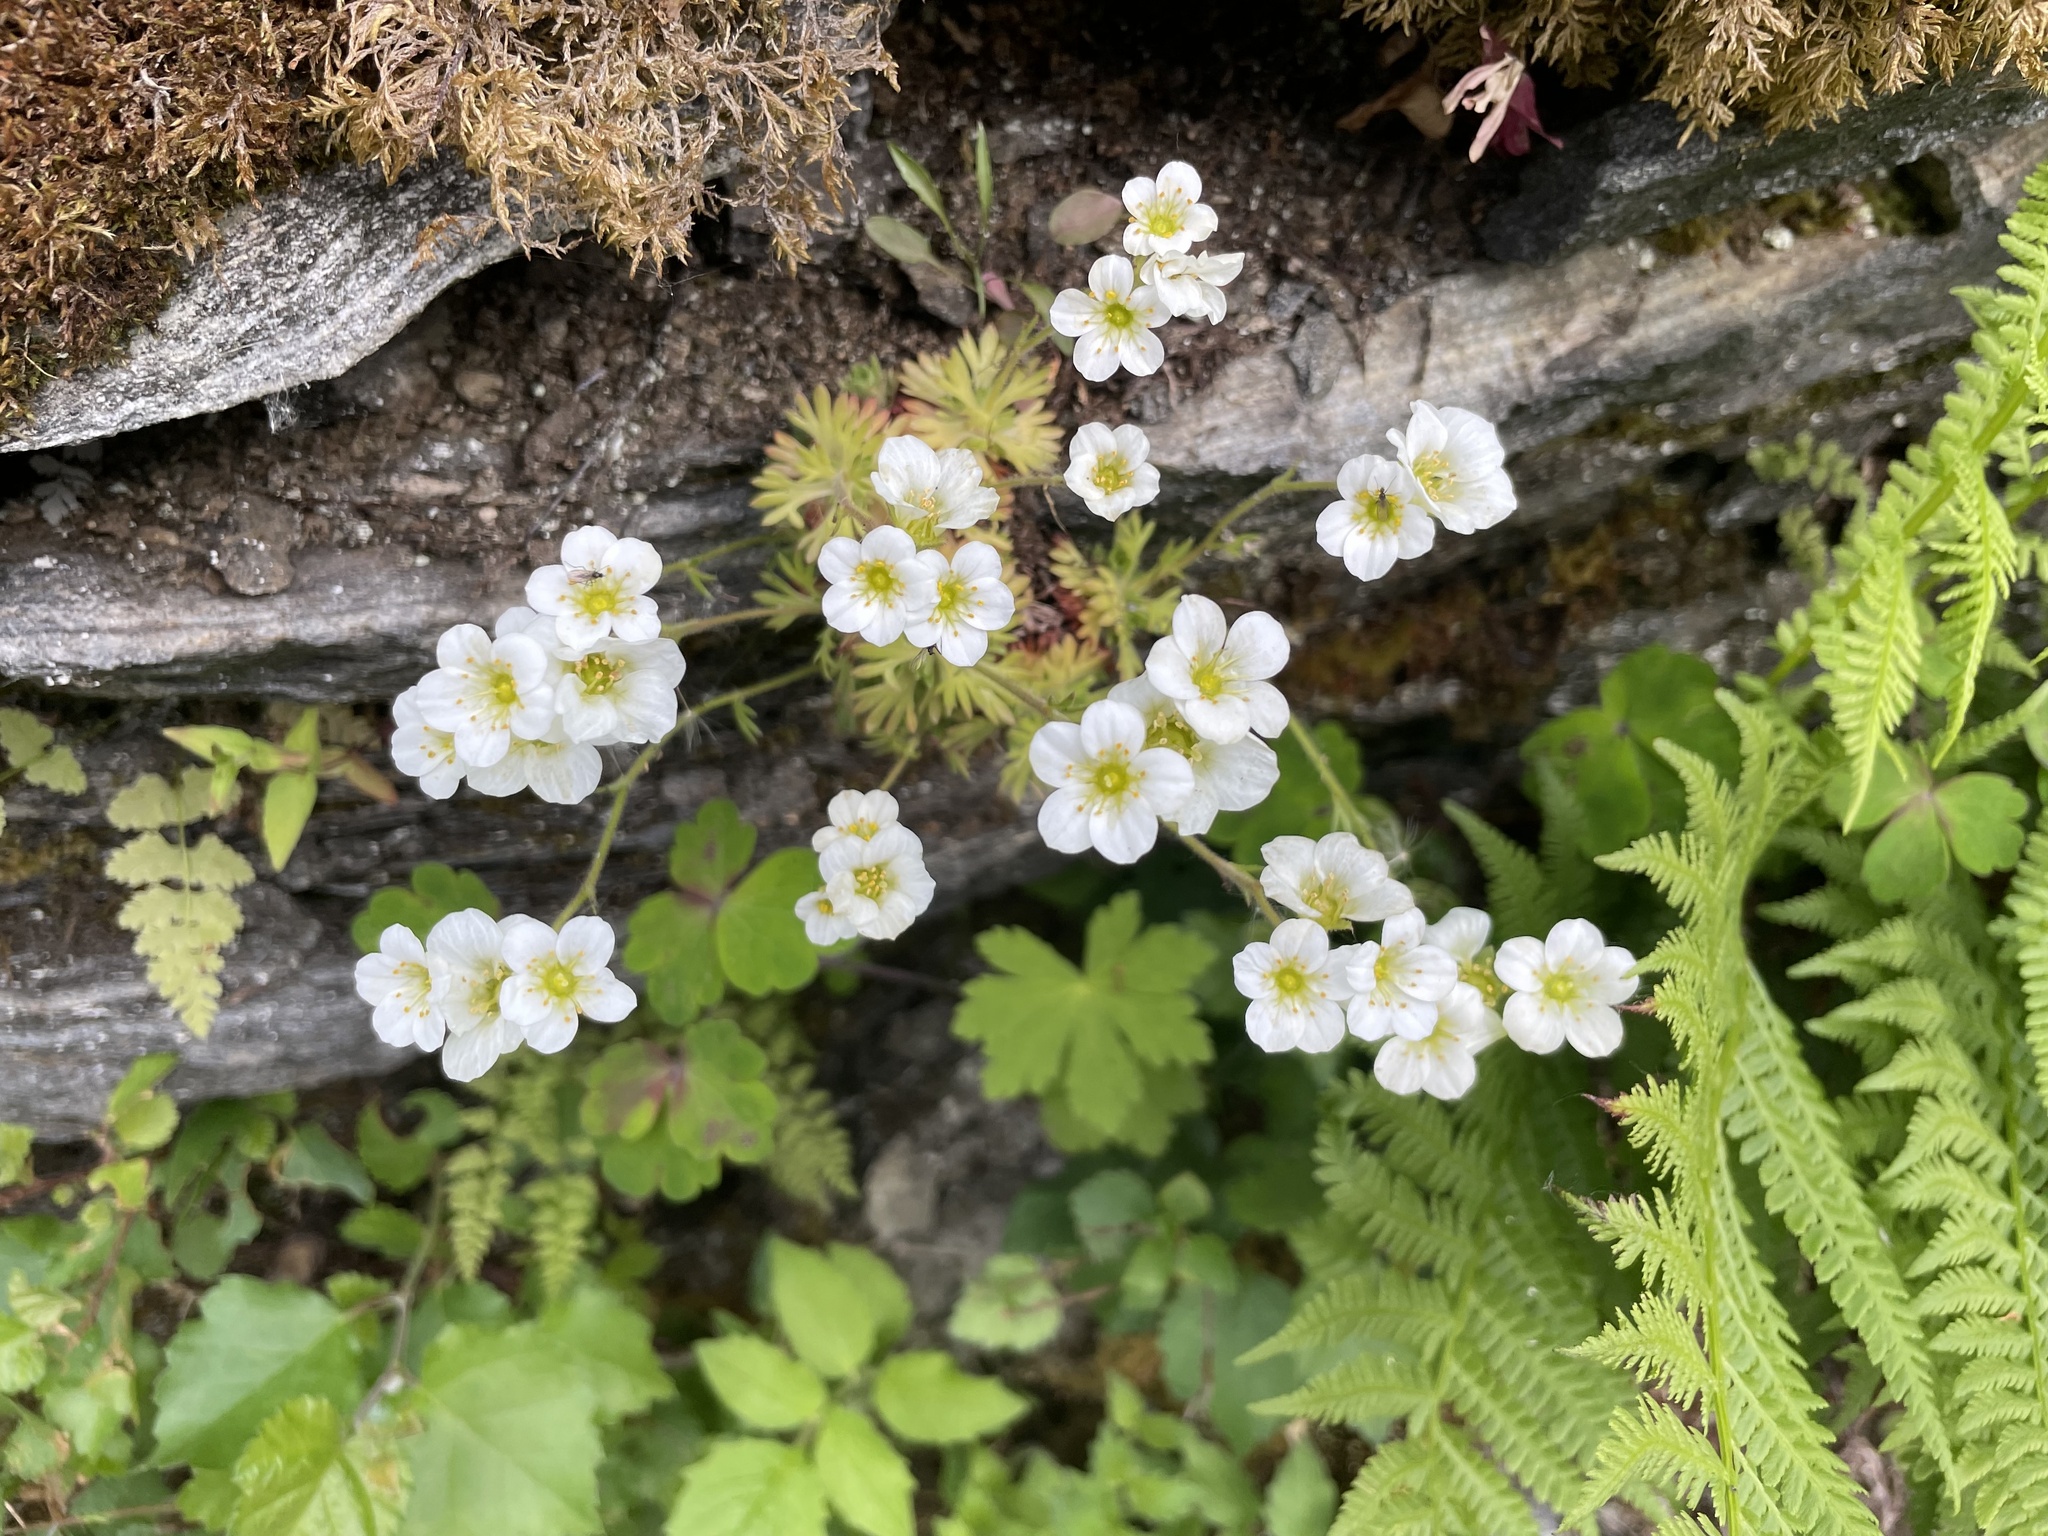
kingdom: Plantae
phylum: Tracheophyta
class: Magnoliopsida
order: Saxifragales
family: Saxifragaceae
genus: Saxifraga
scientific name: Saxifraga cespitosa
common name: Tufted saxifrage
